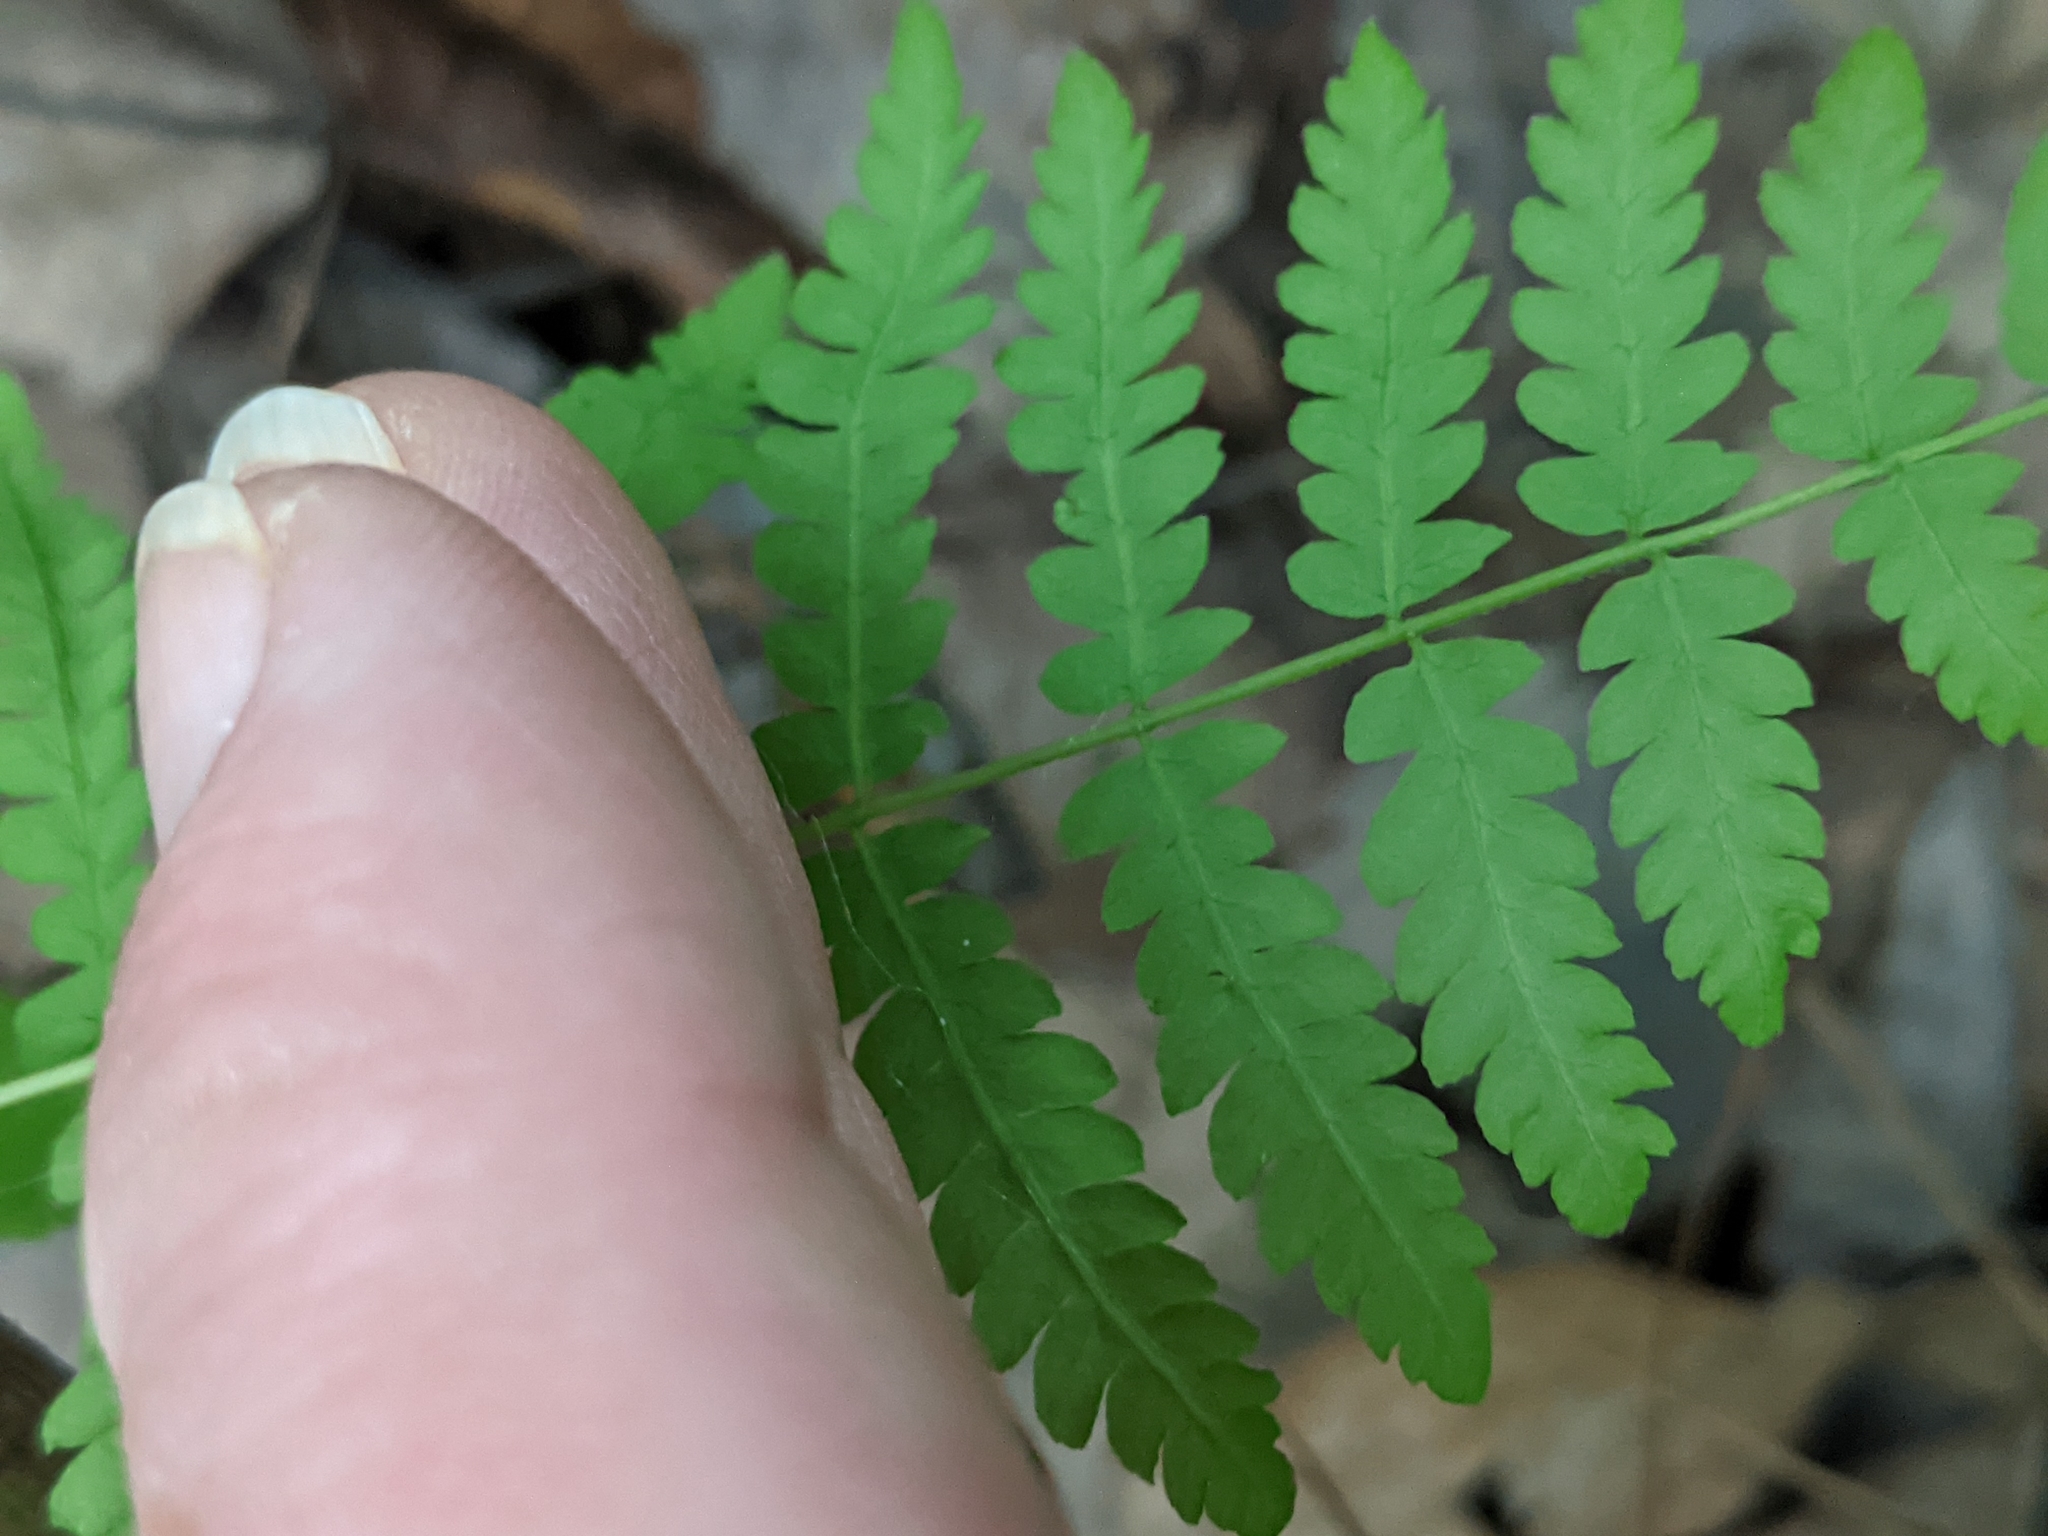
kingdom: Plantae
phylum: Tracheophyta
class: Polypodiopsida
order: Polypodiales
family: Thelypteridaceae
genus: Thelypteris
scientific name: Thelypteris palustris
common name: Marsh fern
